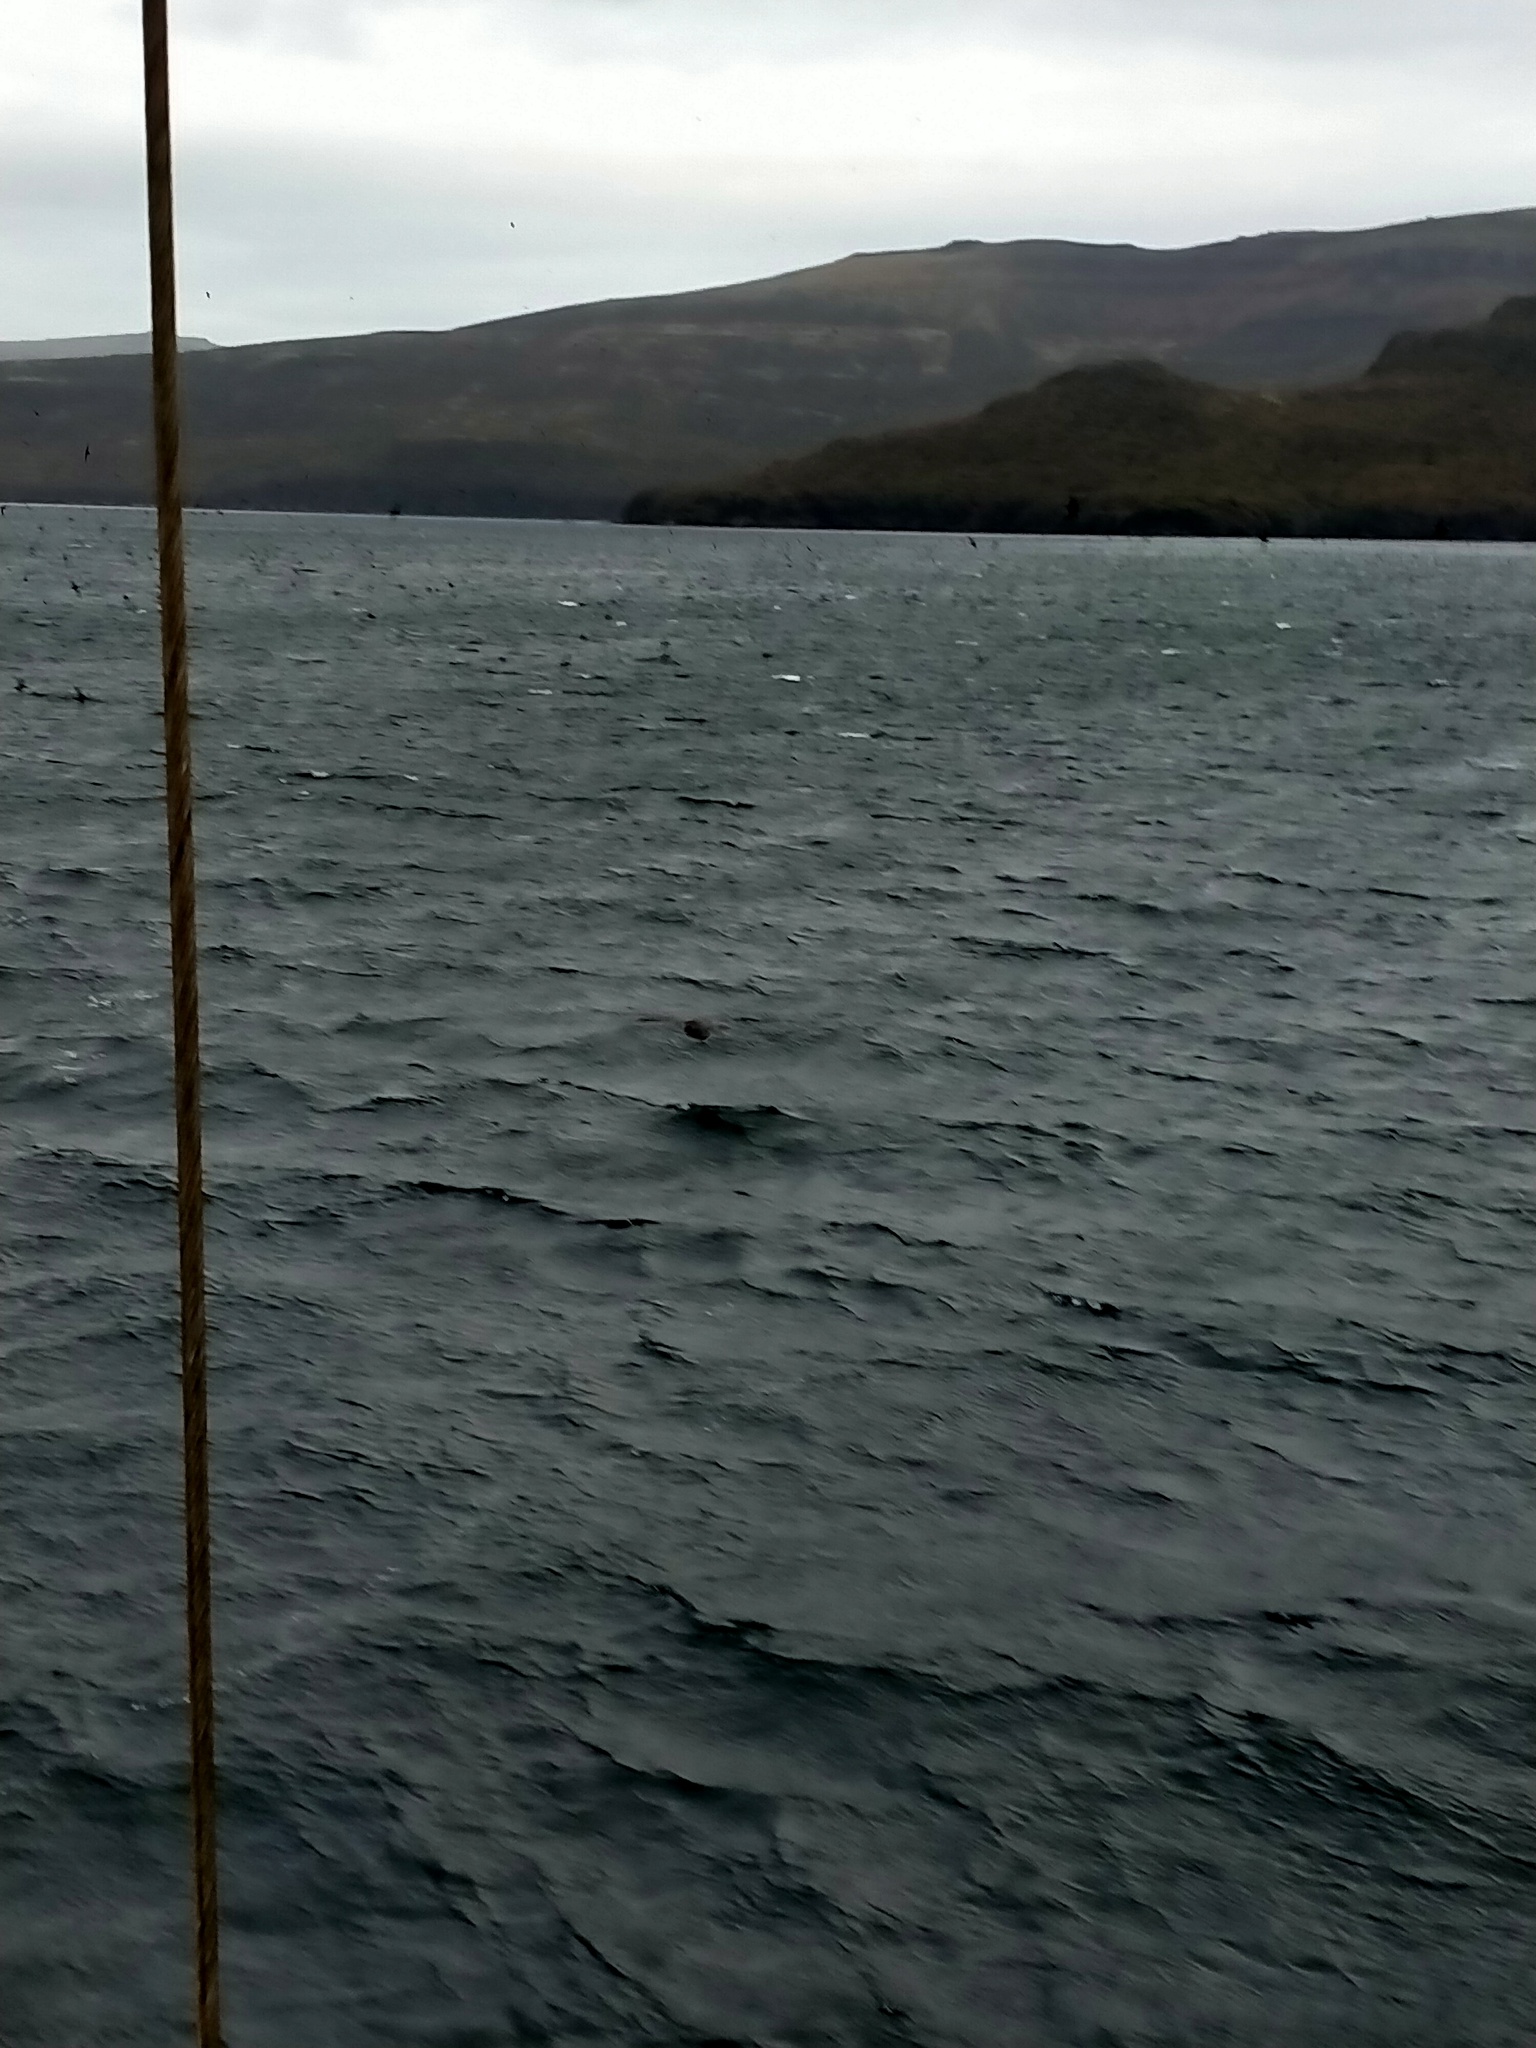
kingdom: Animalia
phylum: Chordata
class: Aves
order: Procellariiformes
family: Procellariidae
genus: Puffinus
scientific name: Puffinus griseus
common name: Sooty shearwater
